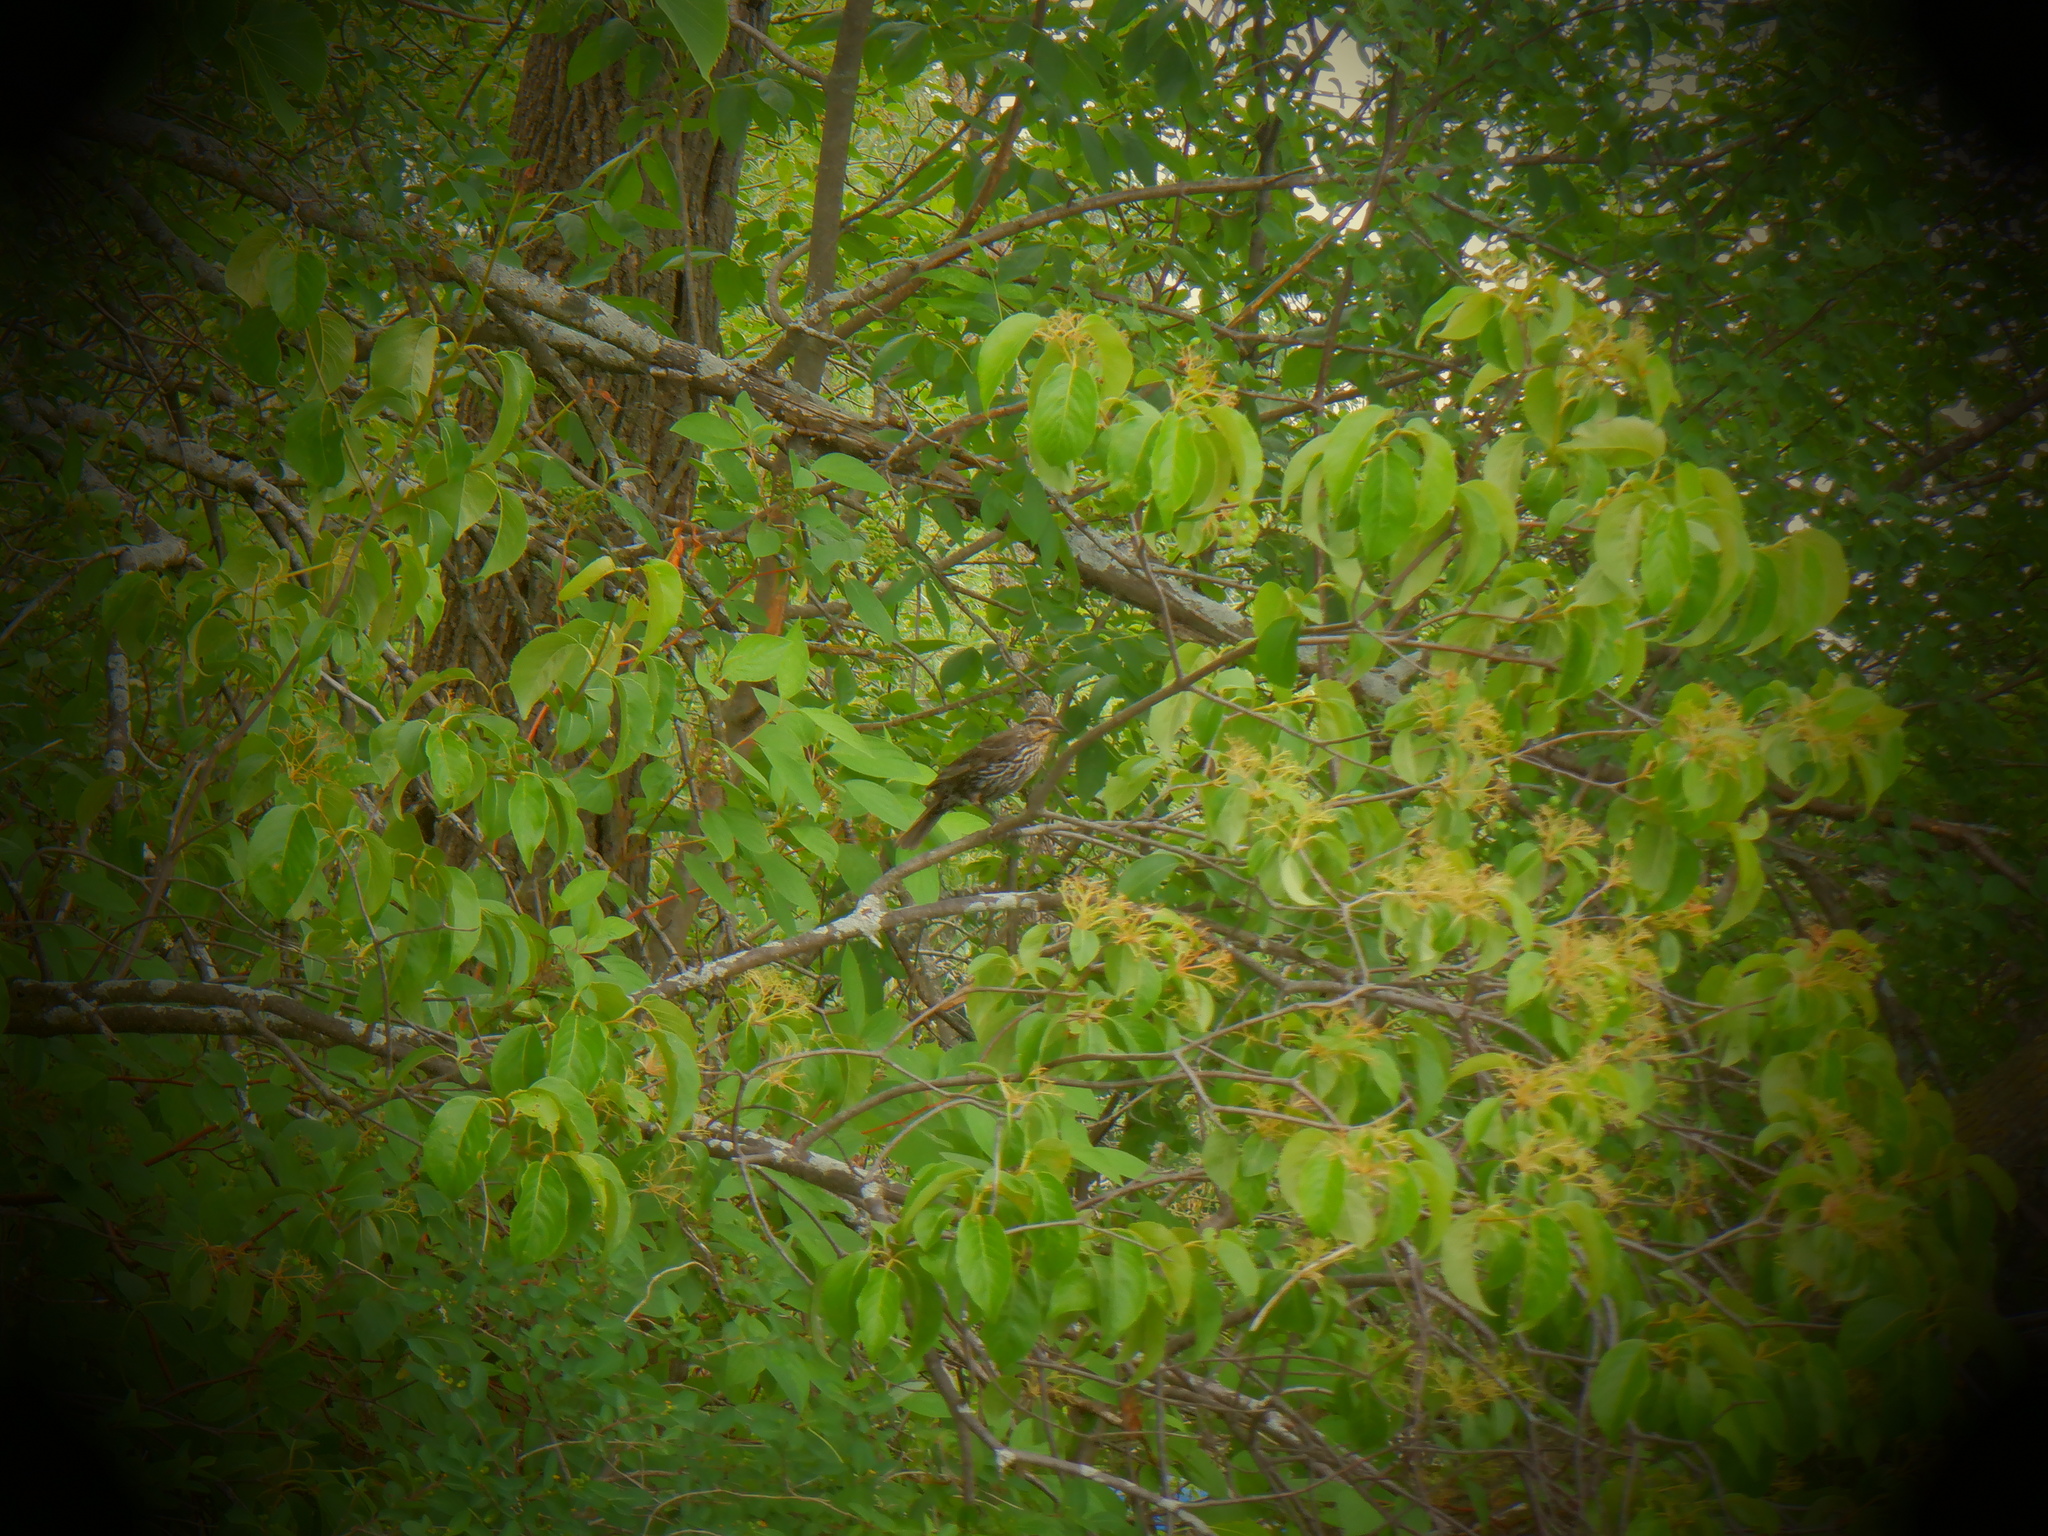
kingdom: Animalia
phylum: Chordata
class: Aves
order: Passeriformes
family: Icteridae
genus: Agelaius
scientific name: Agelaius phoeniceus
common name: Red-winged blackbird
